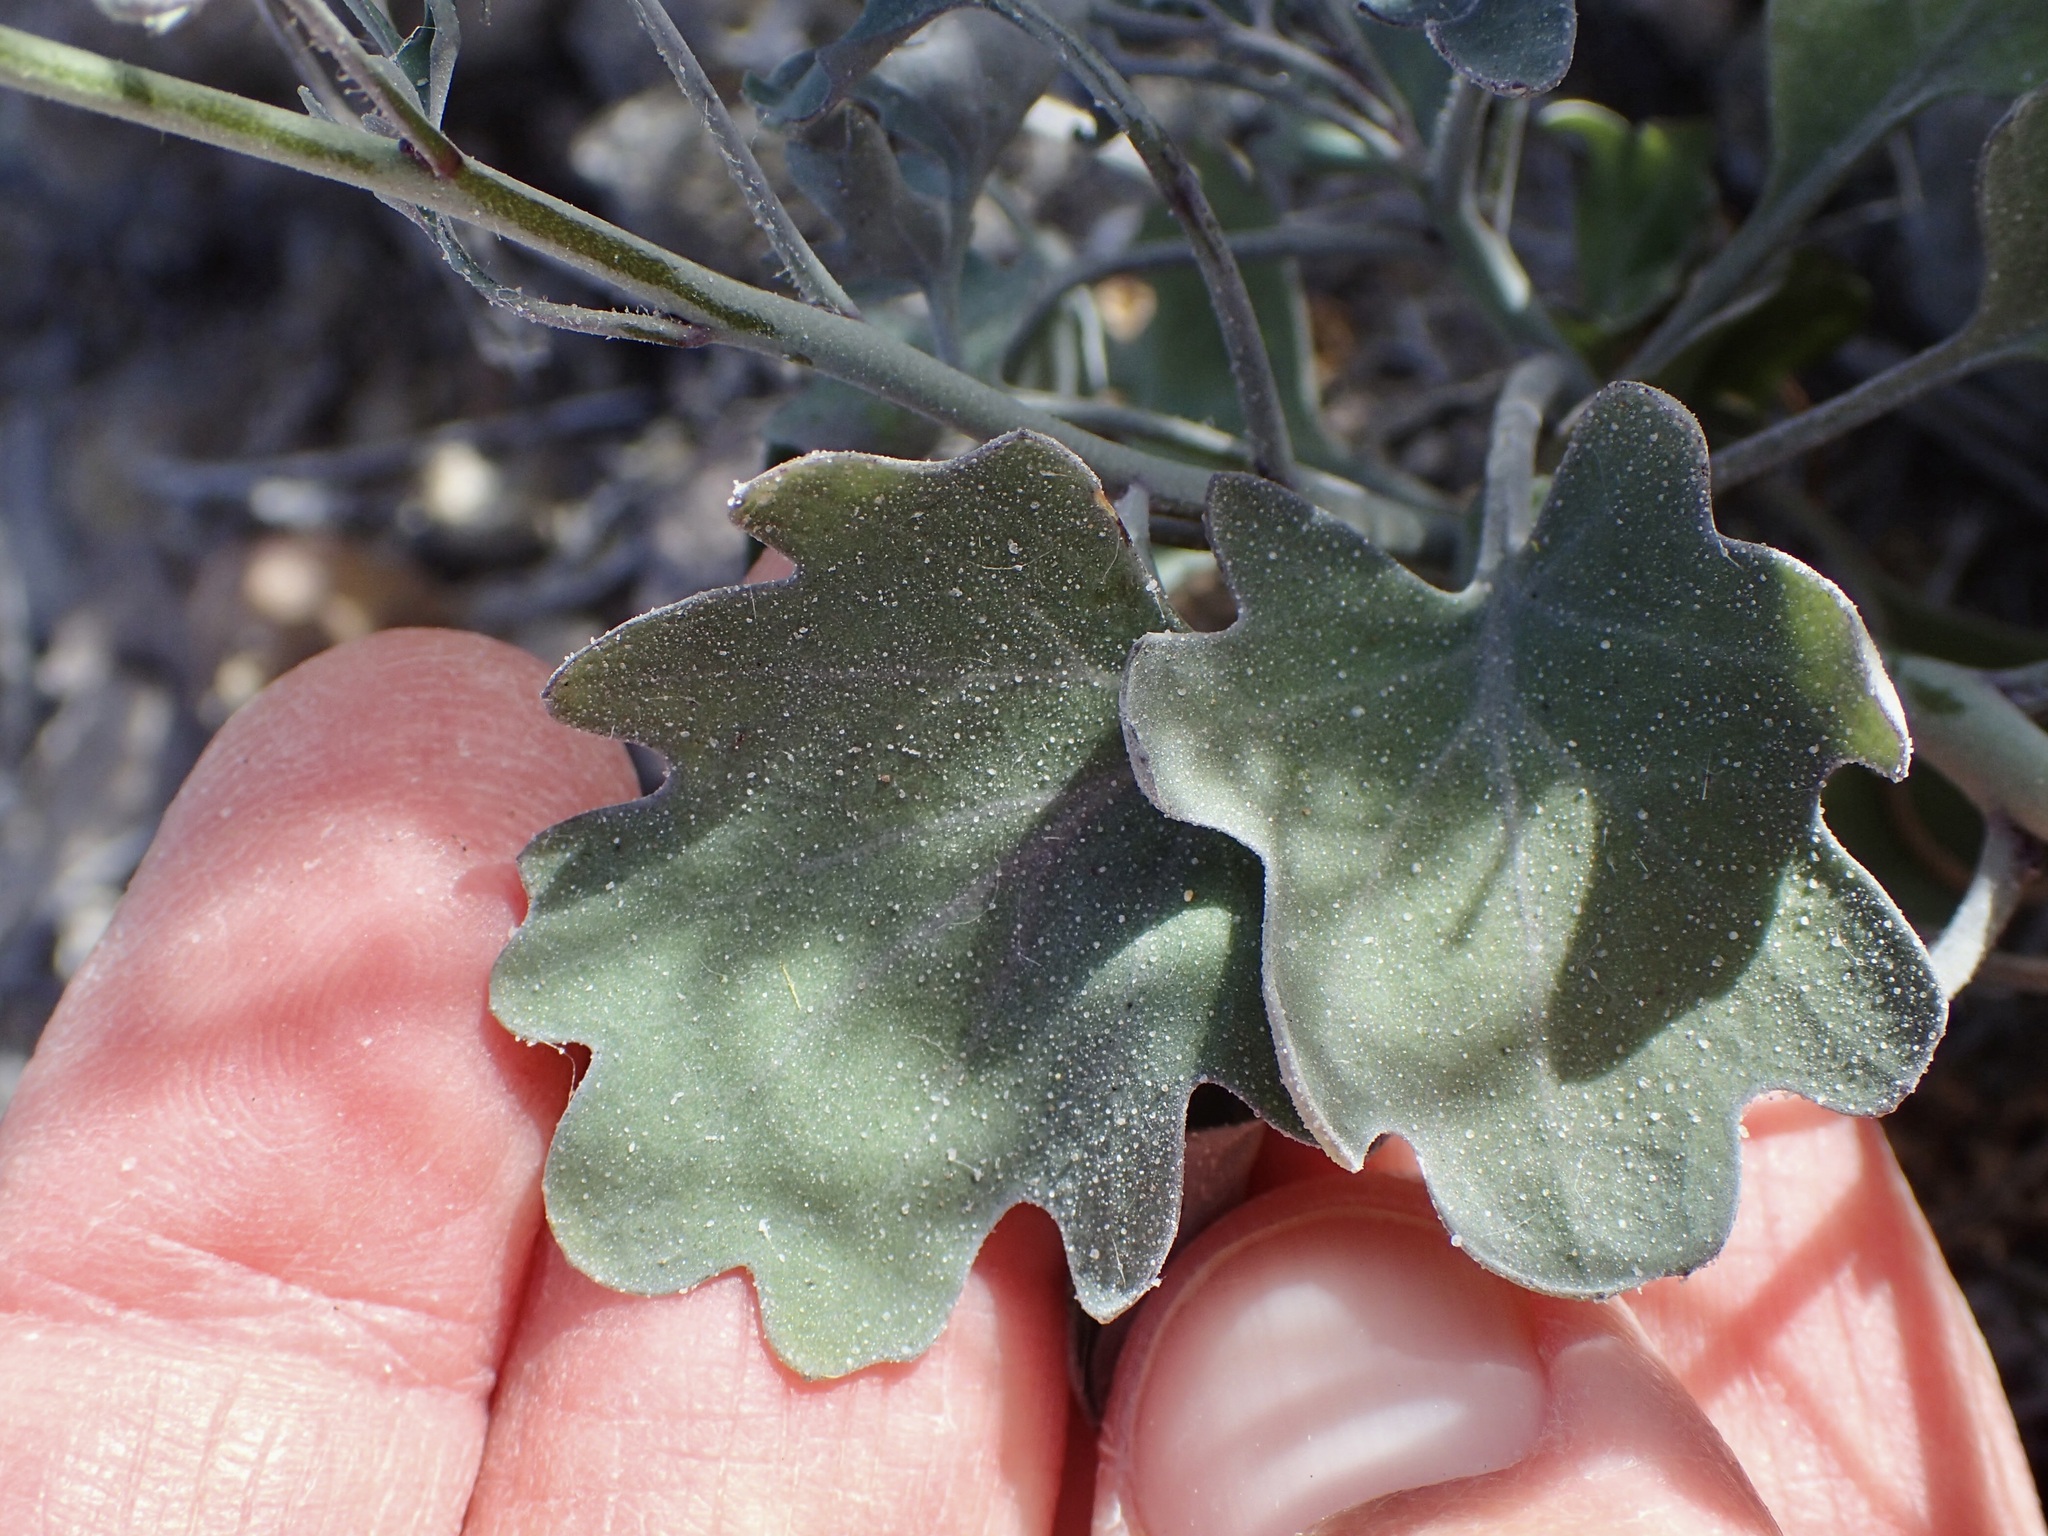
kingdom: Plantae
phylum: Tracheophyta
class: Magnoliopsida
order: Brassicales
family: Brassicaceae
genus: Dryopetalon
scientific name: Dryopetalon palmeri
